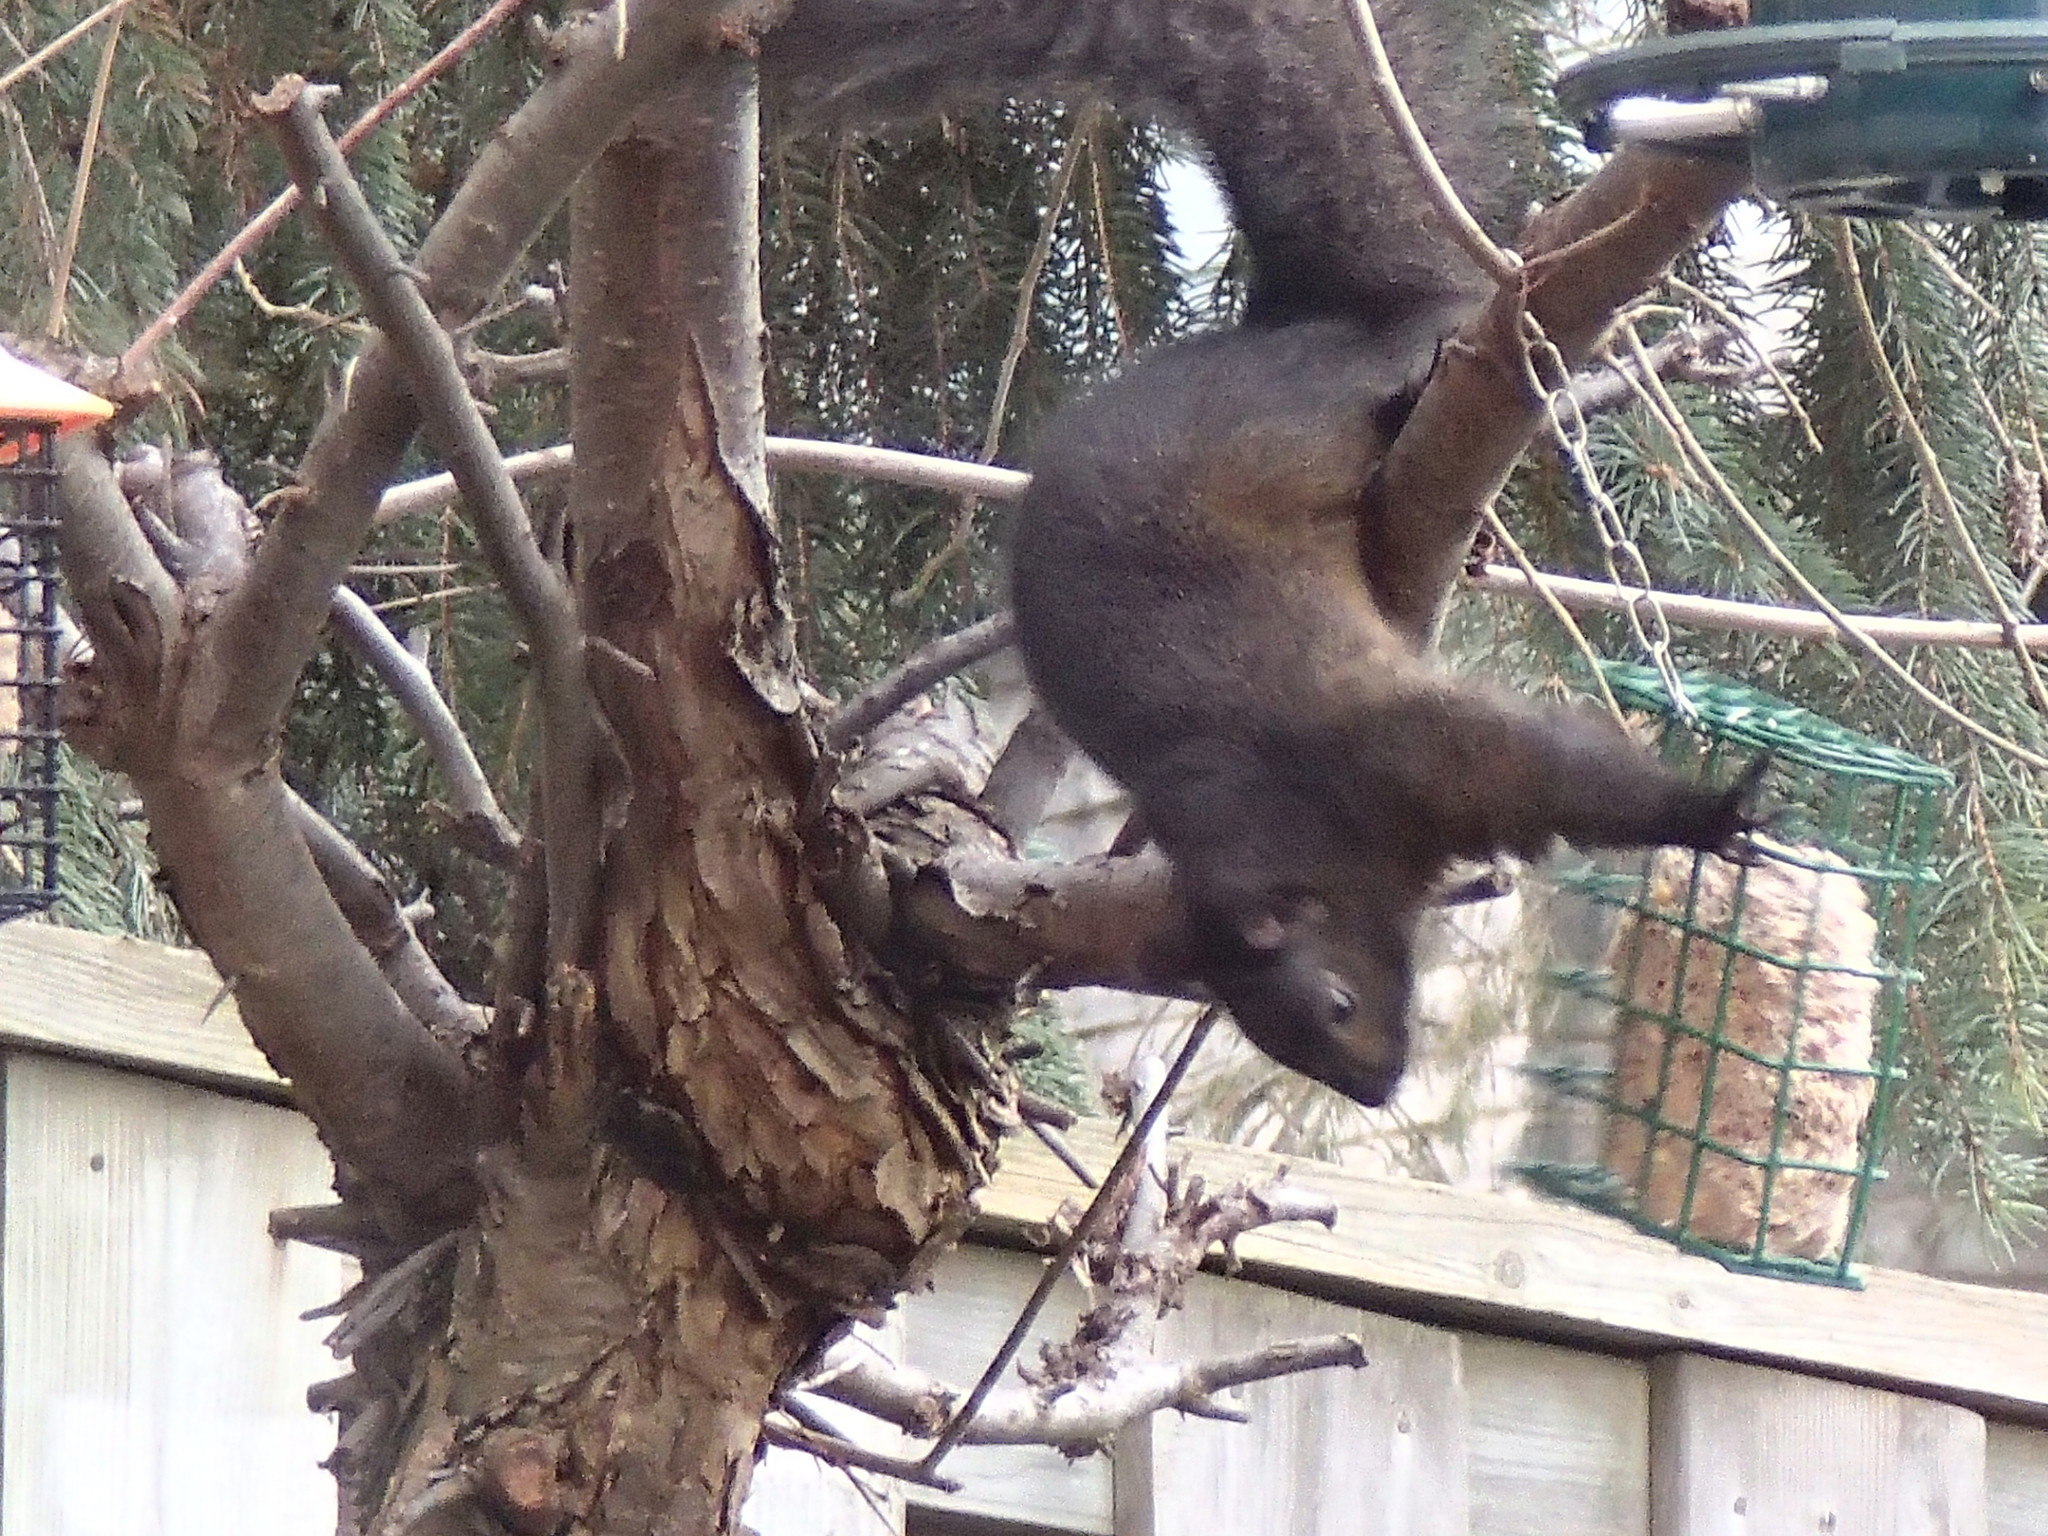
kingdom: Animalia
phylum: Chordata
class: Mammalia
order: Rodentia
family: Sciuridae
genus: Sciurus
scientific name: Sciurus carolinensis
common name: Eastern gray squirrel
